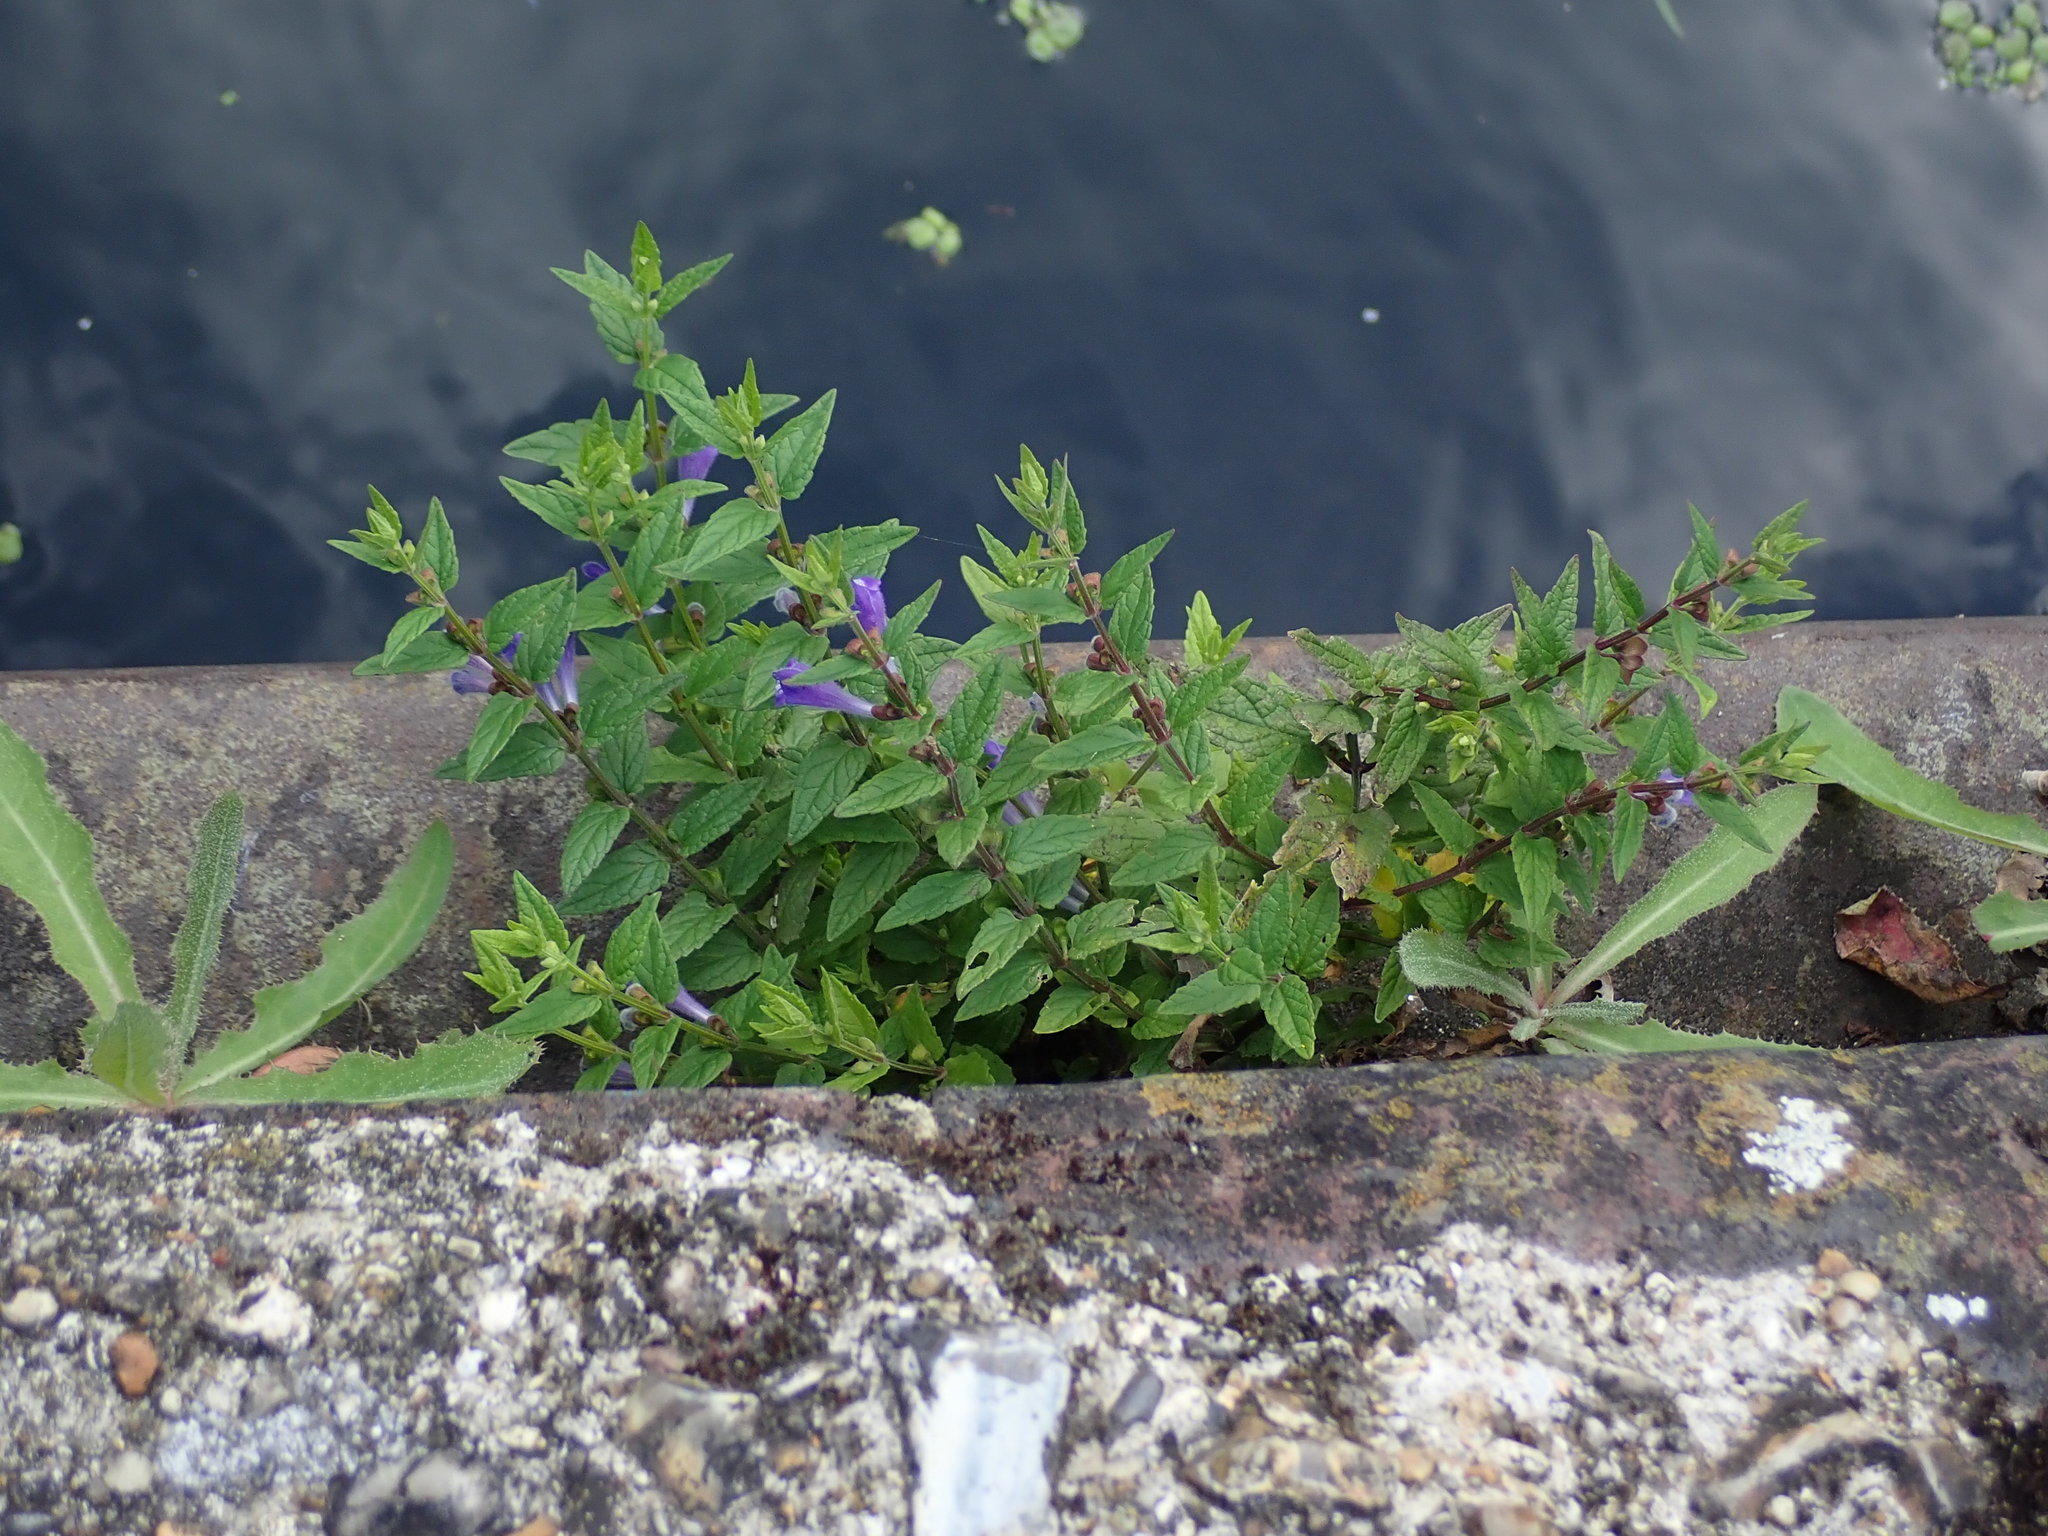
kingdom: Plantae
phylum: Tracheophyta
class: Magnoliopsida
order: Lamiales
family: Lamiaceae
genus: Scutellaria
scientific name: Scutellaria galericulata
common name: Skullcap
